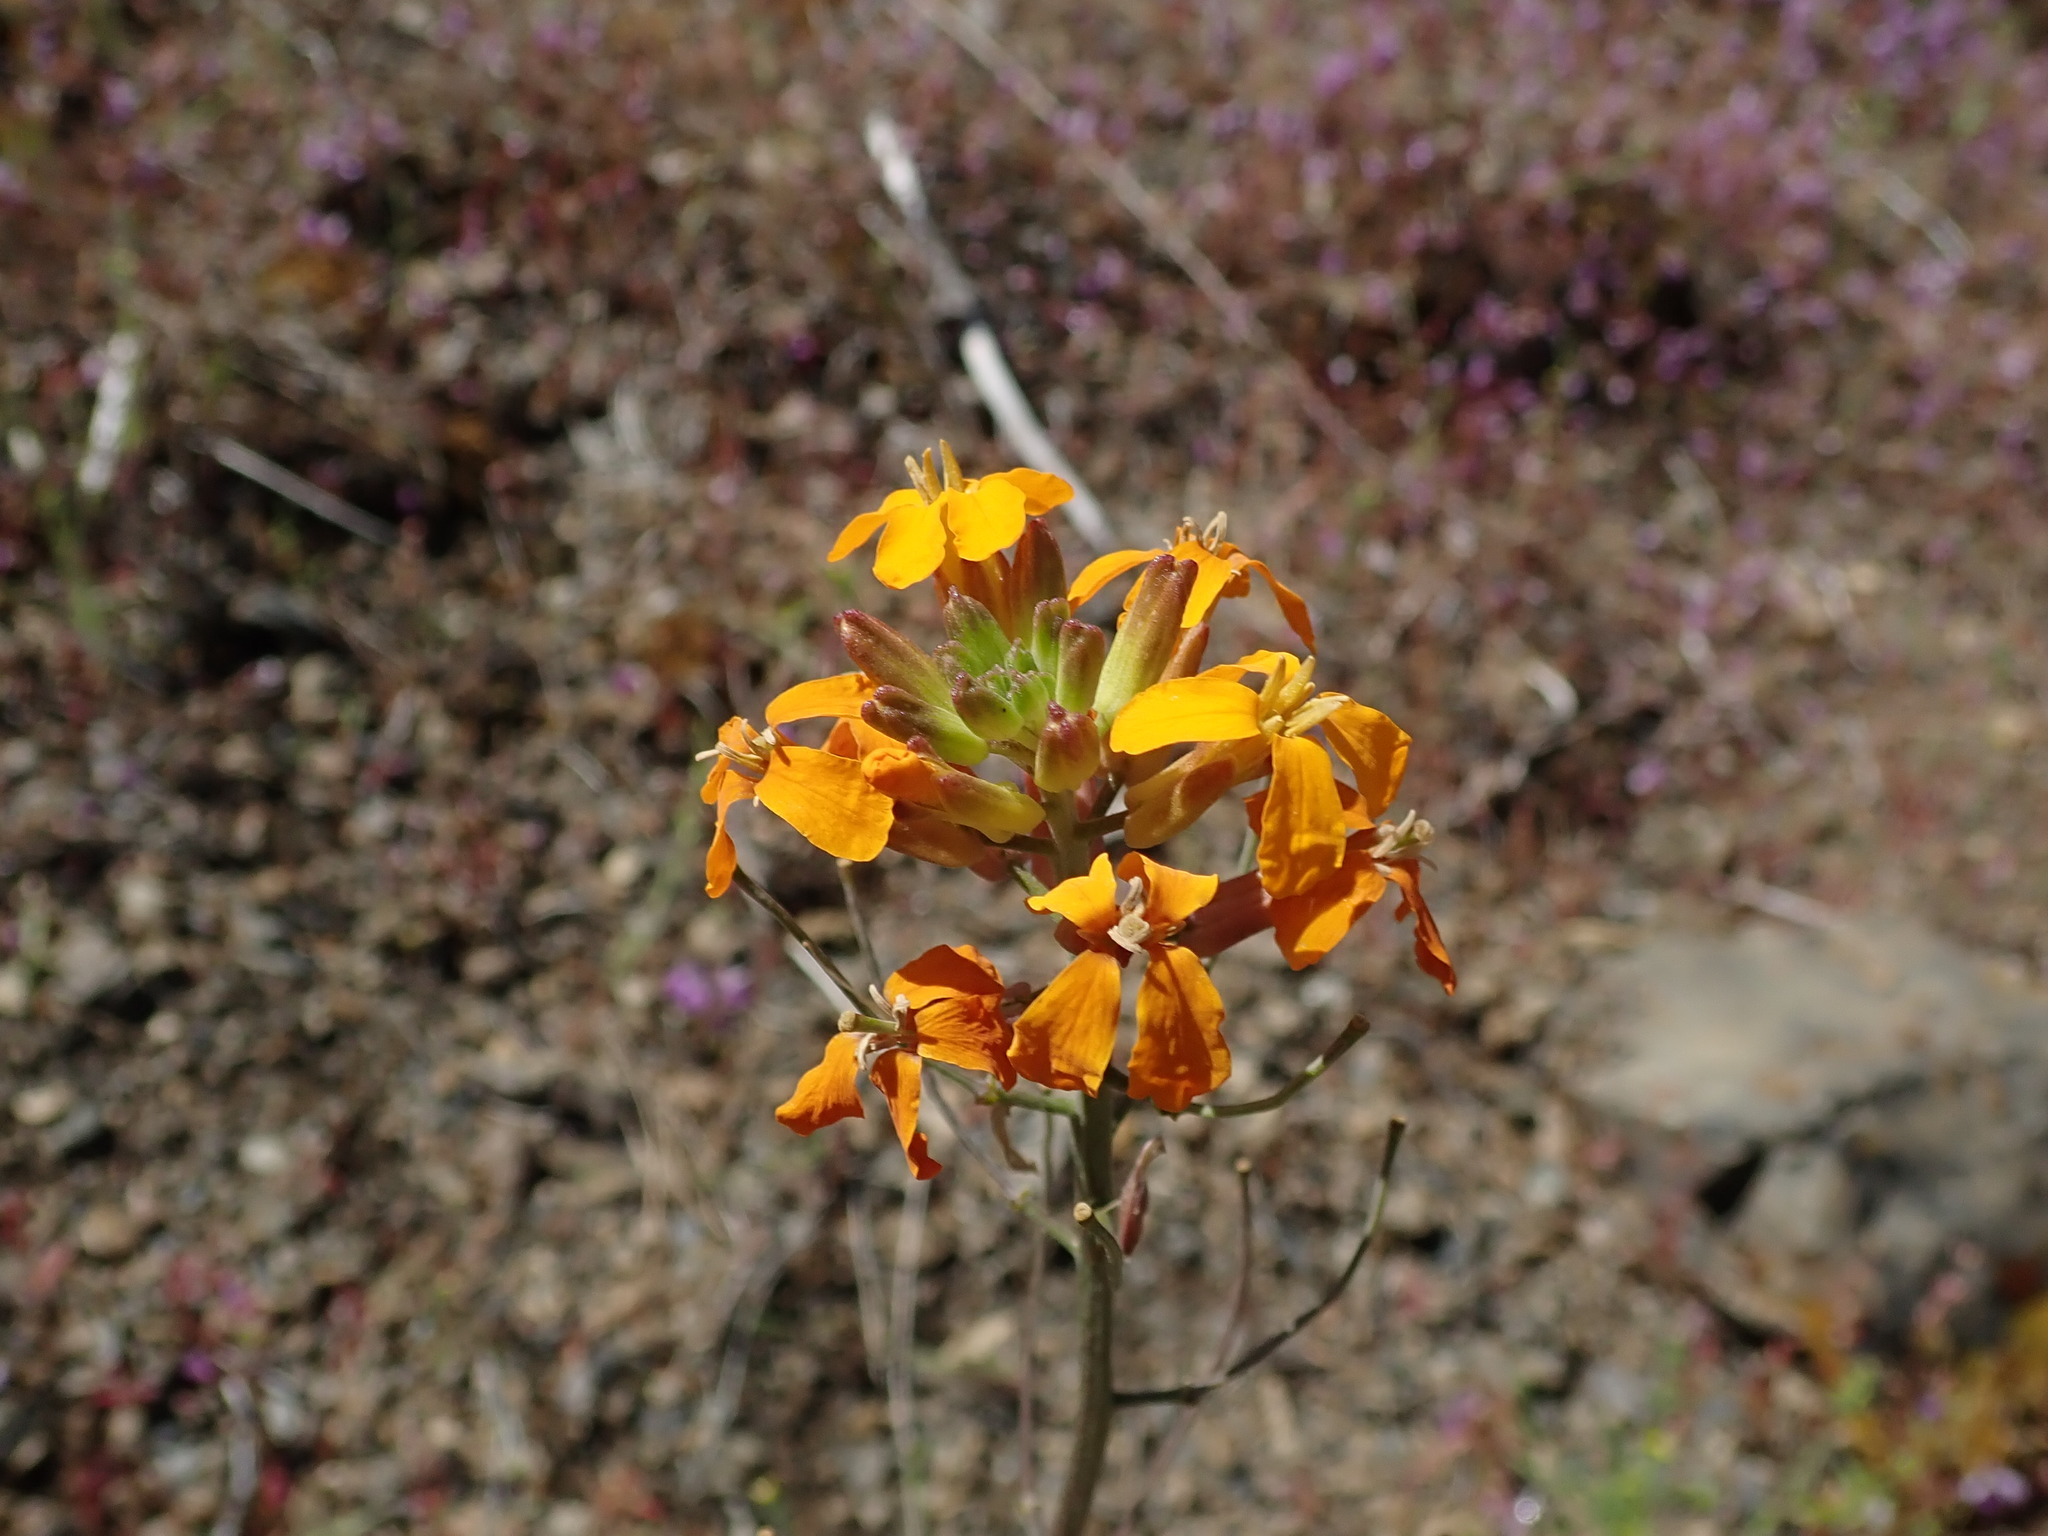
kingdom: Plantae
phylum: Tracheophyta
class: Magnoliopsida
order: Brassicales
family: Brassicaceae
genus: Erysimum
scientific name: Erysimum capitatum
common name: Western wallflower
